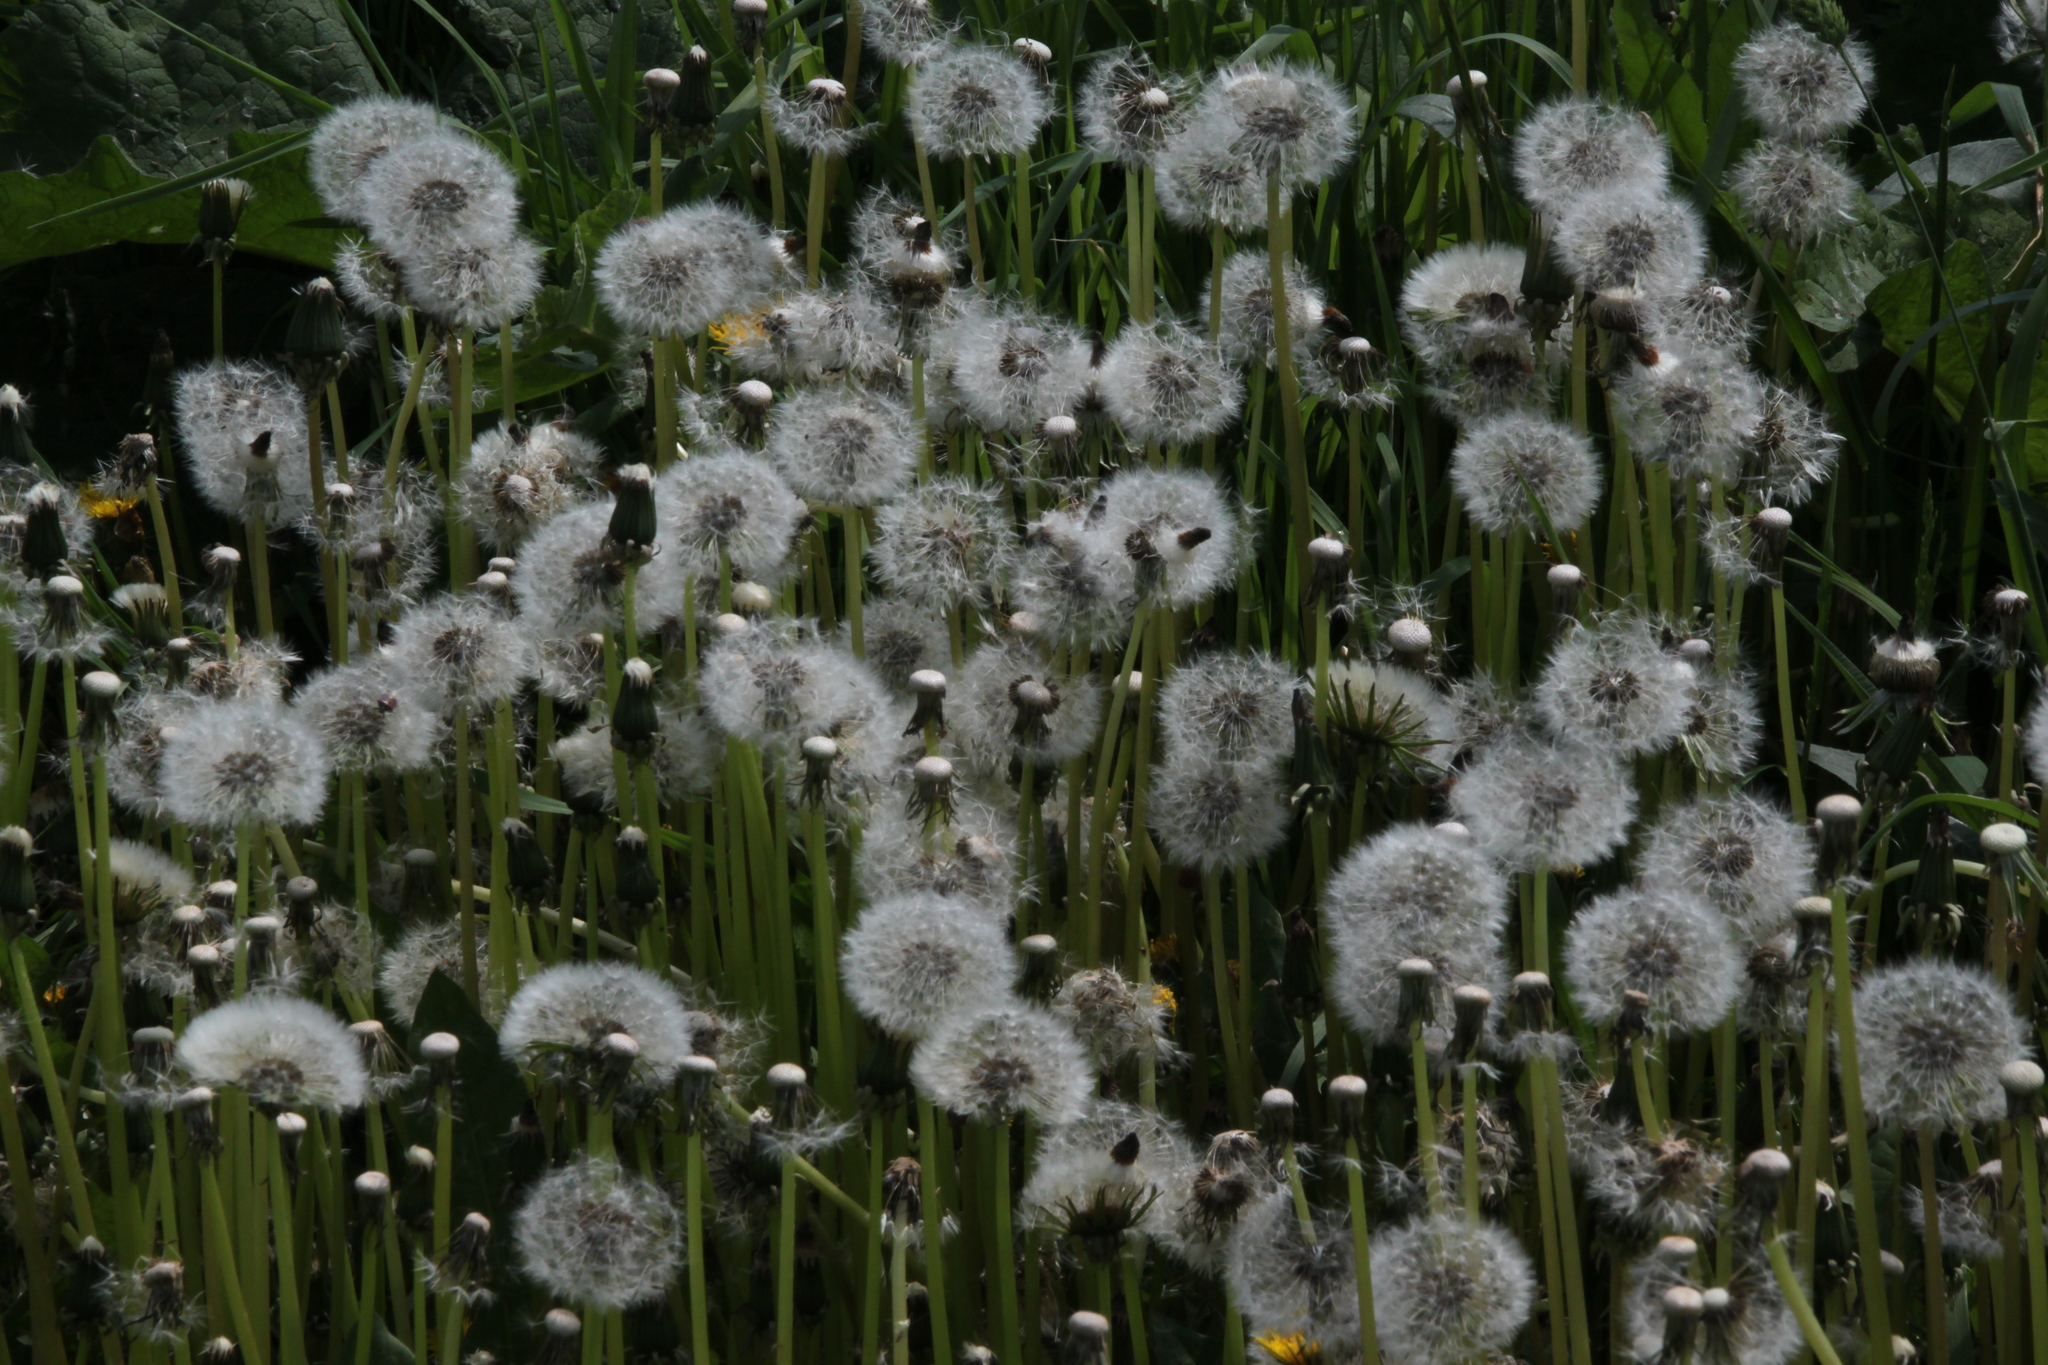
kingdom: Plantae
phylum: Tracheophyta
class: Magnoliopsida
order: Asterales
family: Asteraceae
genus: Taraxacum
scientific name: Taraxacum officinale
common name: Common dandelion
